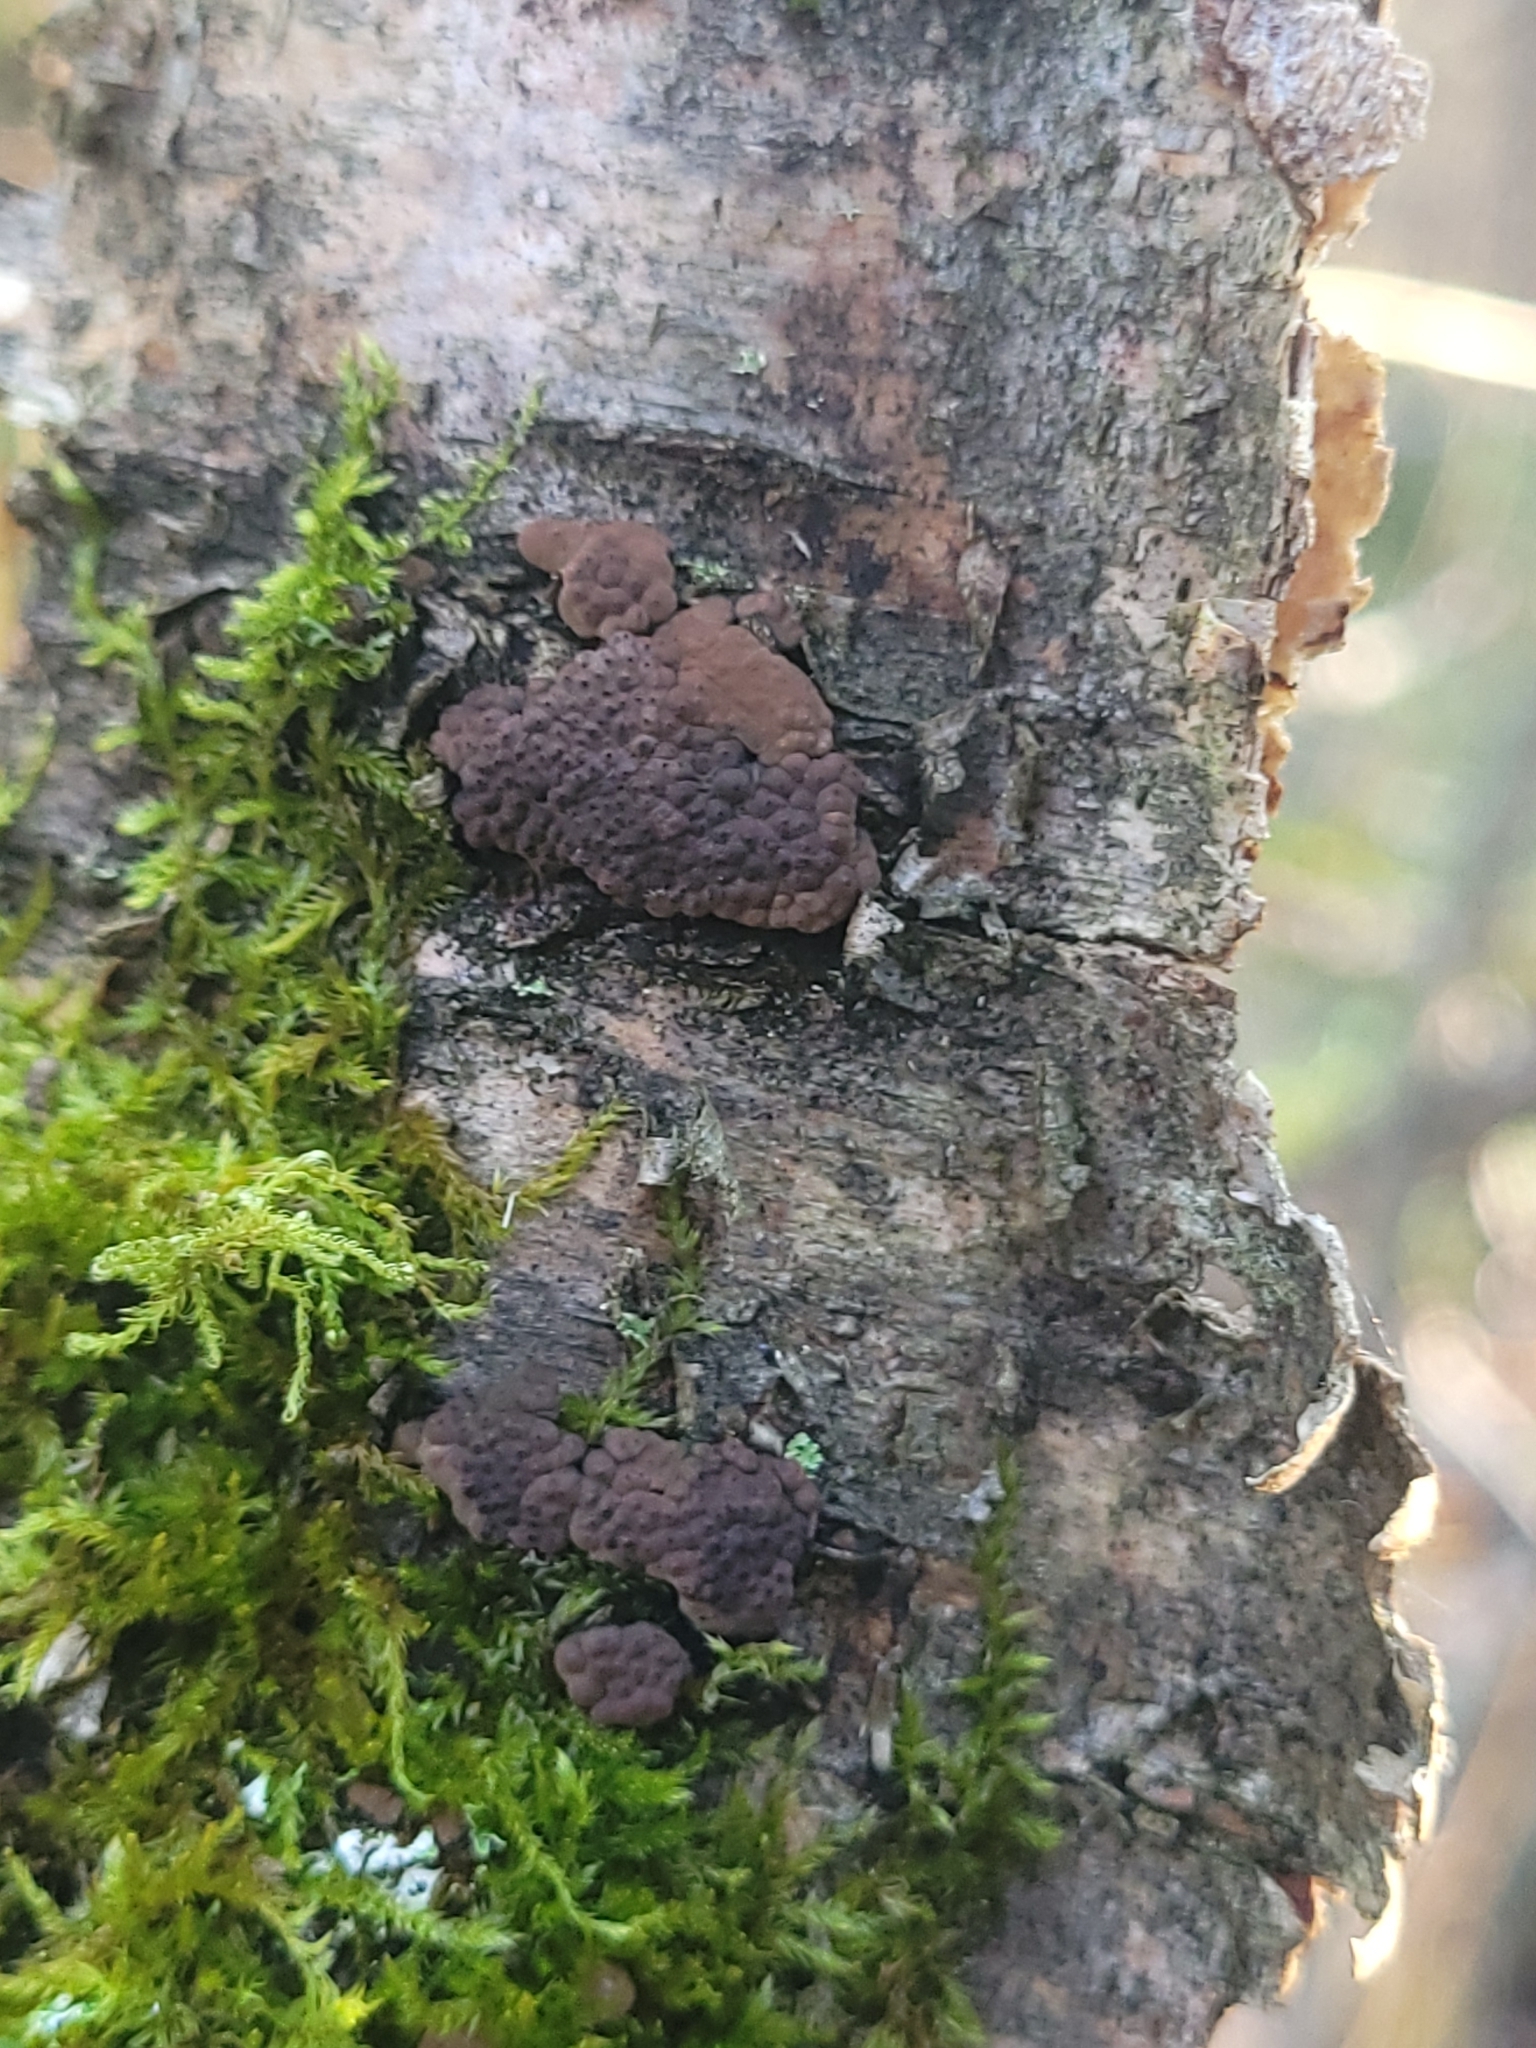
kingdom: Fungi
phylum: Ascomycota
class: Sordariomycetes
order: Xylariales
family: Hypoxylaceae
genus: Jackrogersella
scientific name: Jackrogersella multiformis
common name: Birch woodwart
